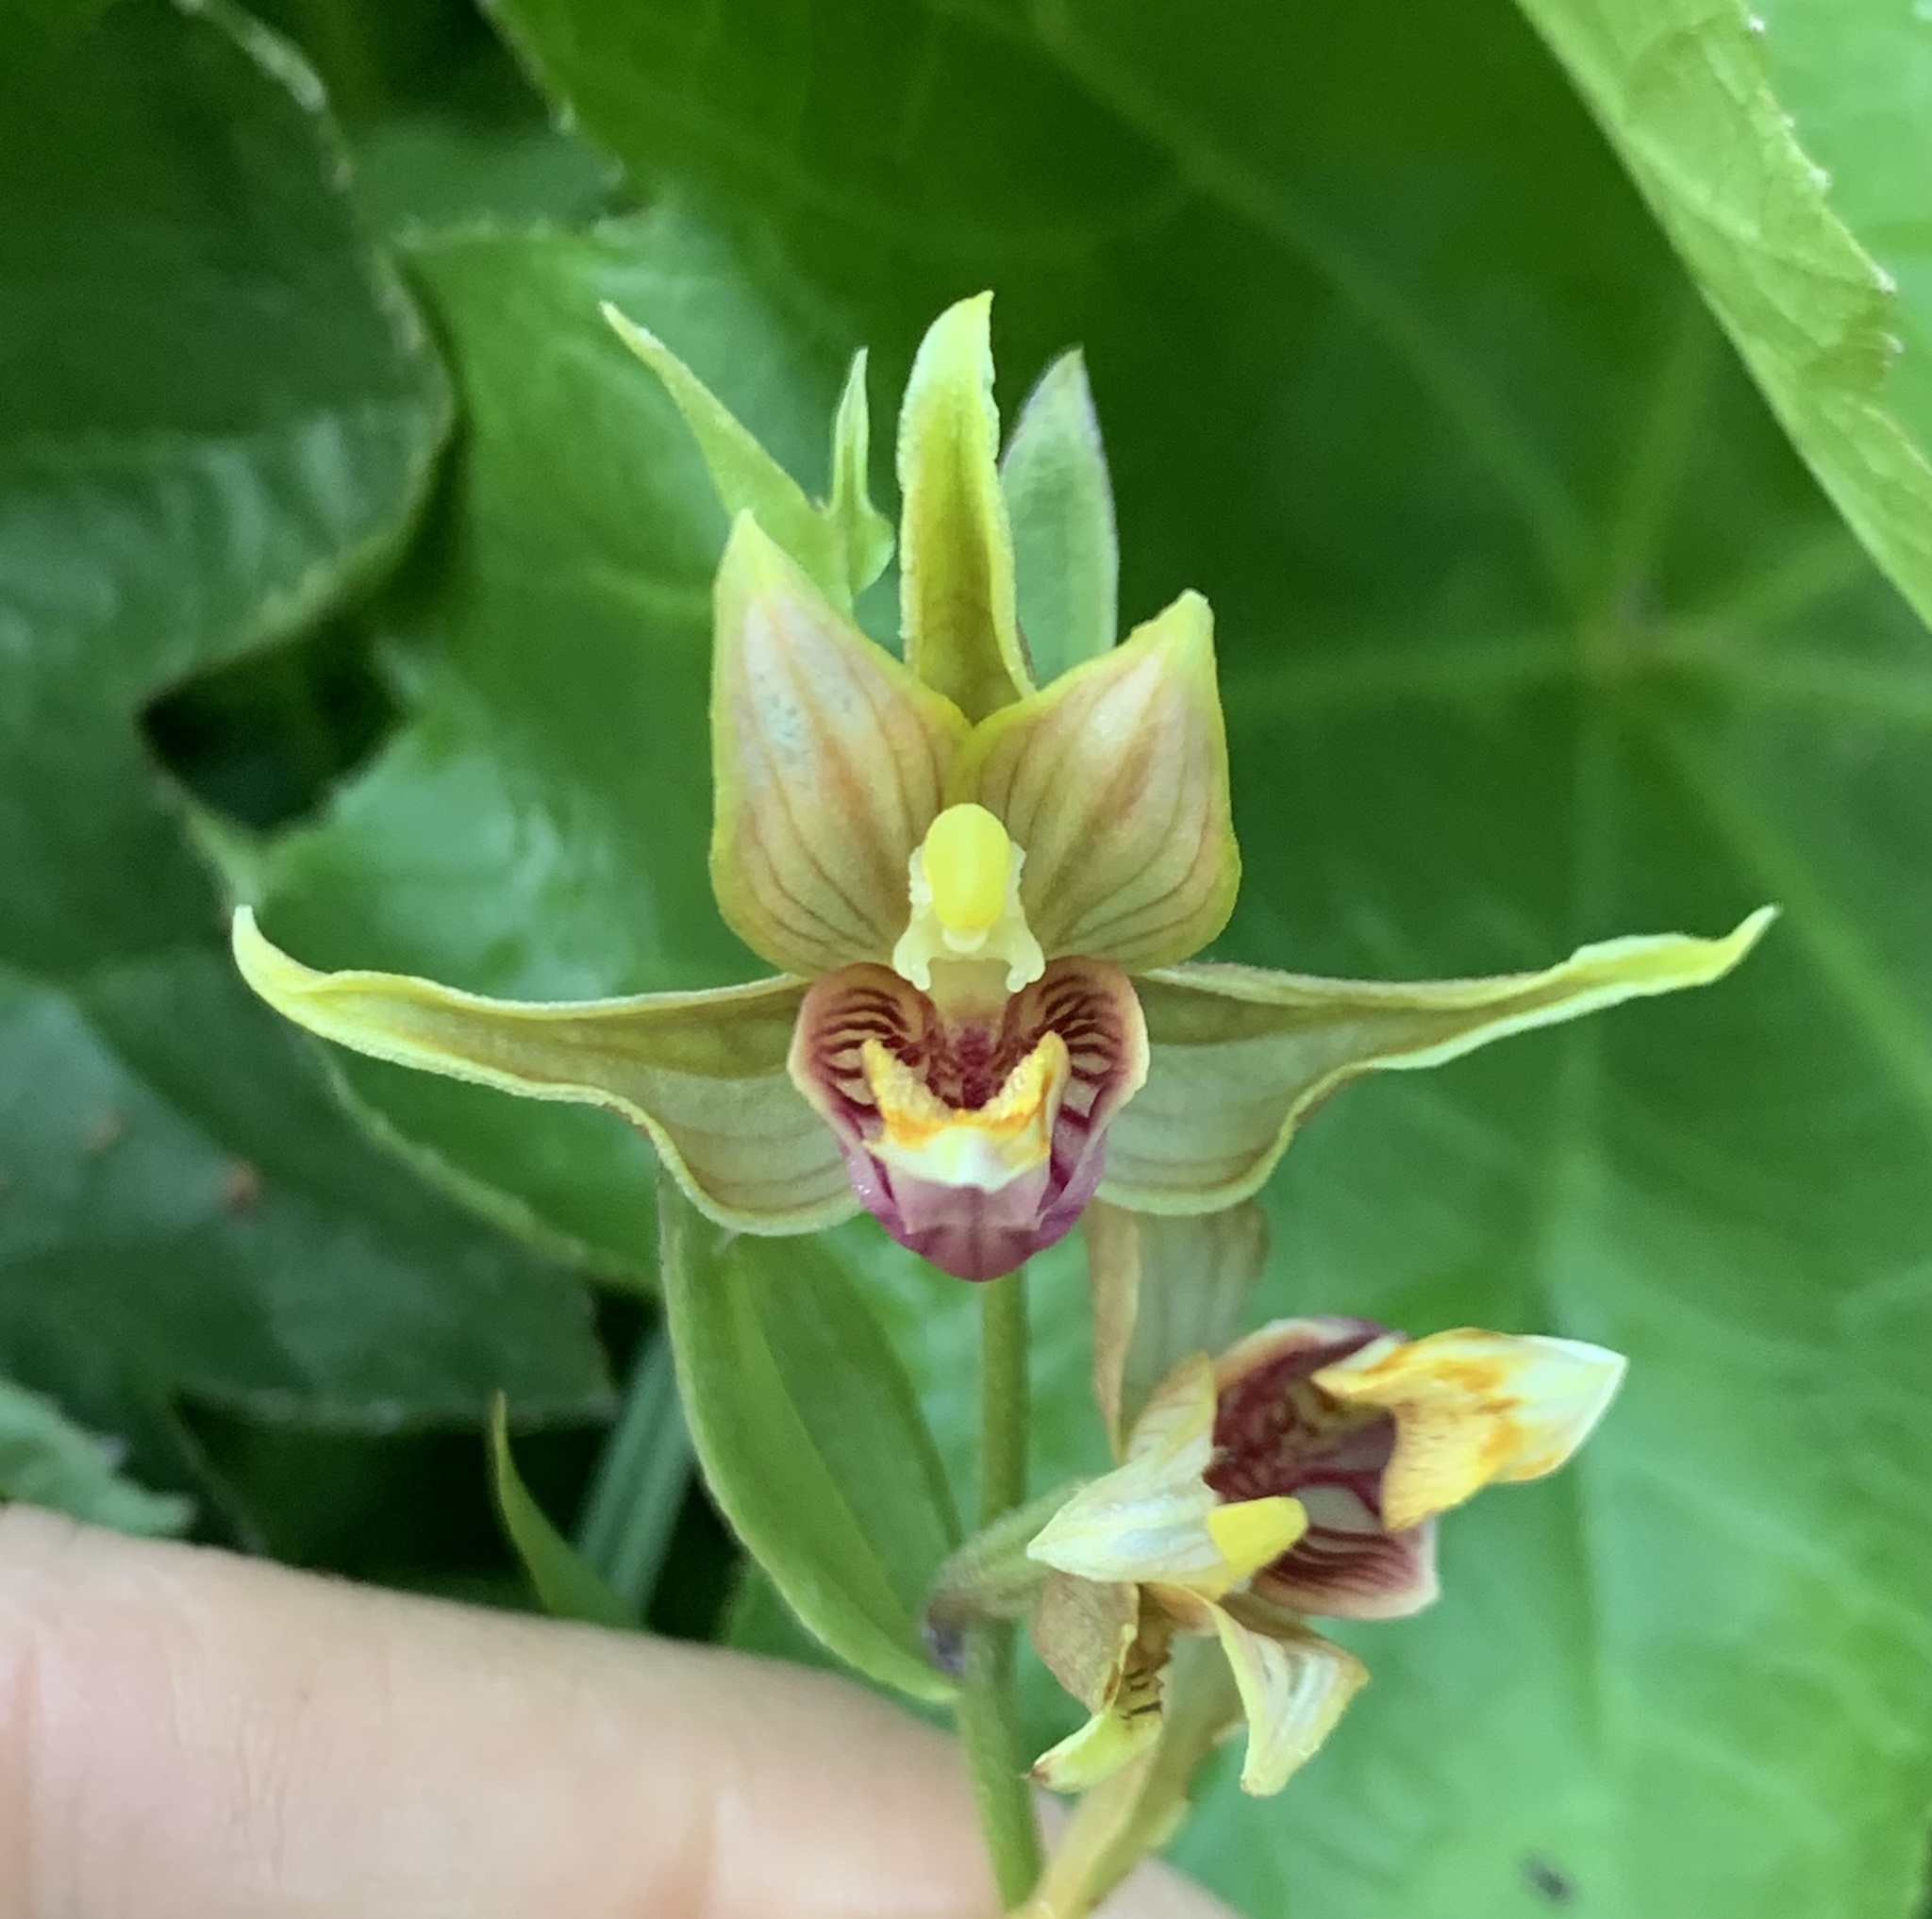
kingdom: Plantae
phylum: Tracheophyta
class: Liliopsida
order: Asparagales
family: Orchidaceae
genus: Epipactis
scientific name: Epipactis gigantea
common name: Chatterbox
